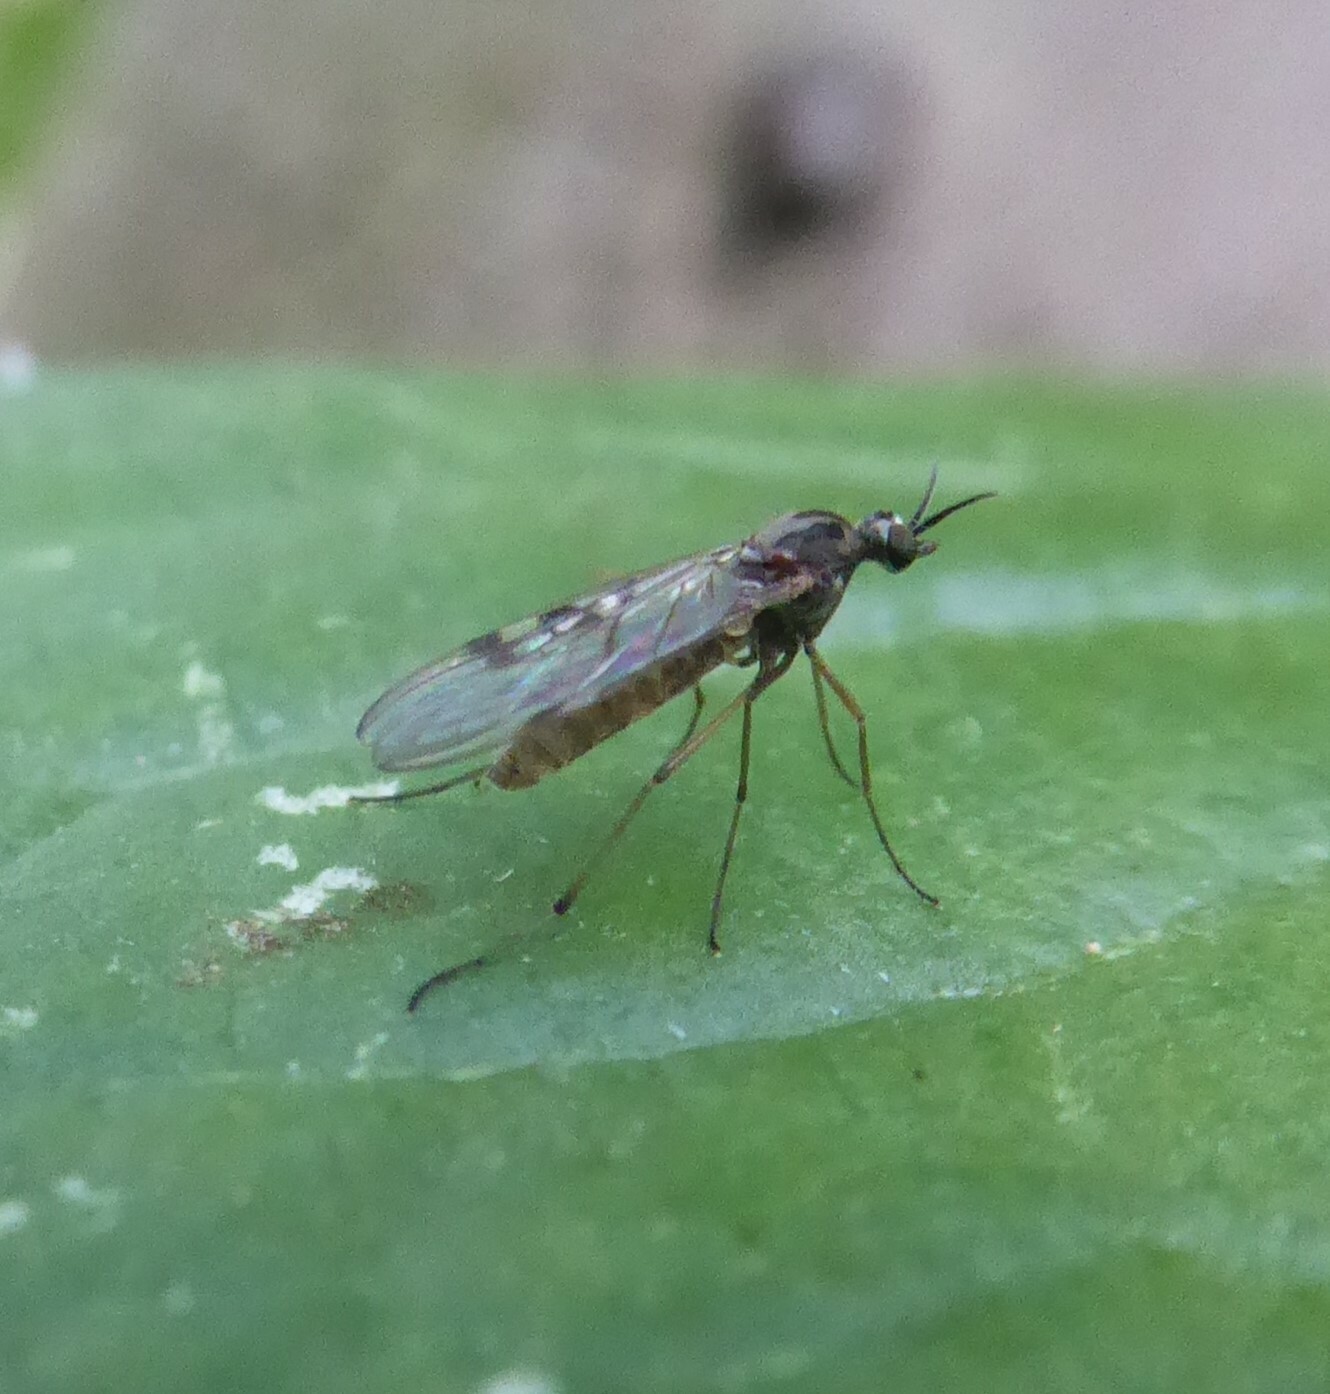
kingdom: Animalia
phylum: Arthropoda
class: Insecta
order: Diptera
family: Anisopodidae
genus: Sylvicola
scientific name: Sylvicola punctatus
